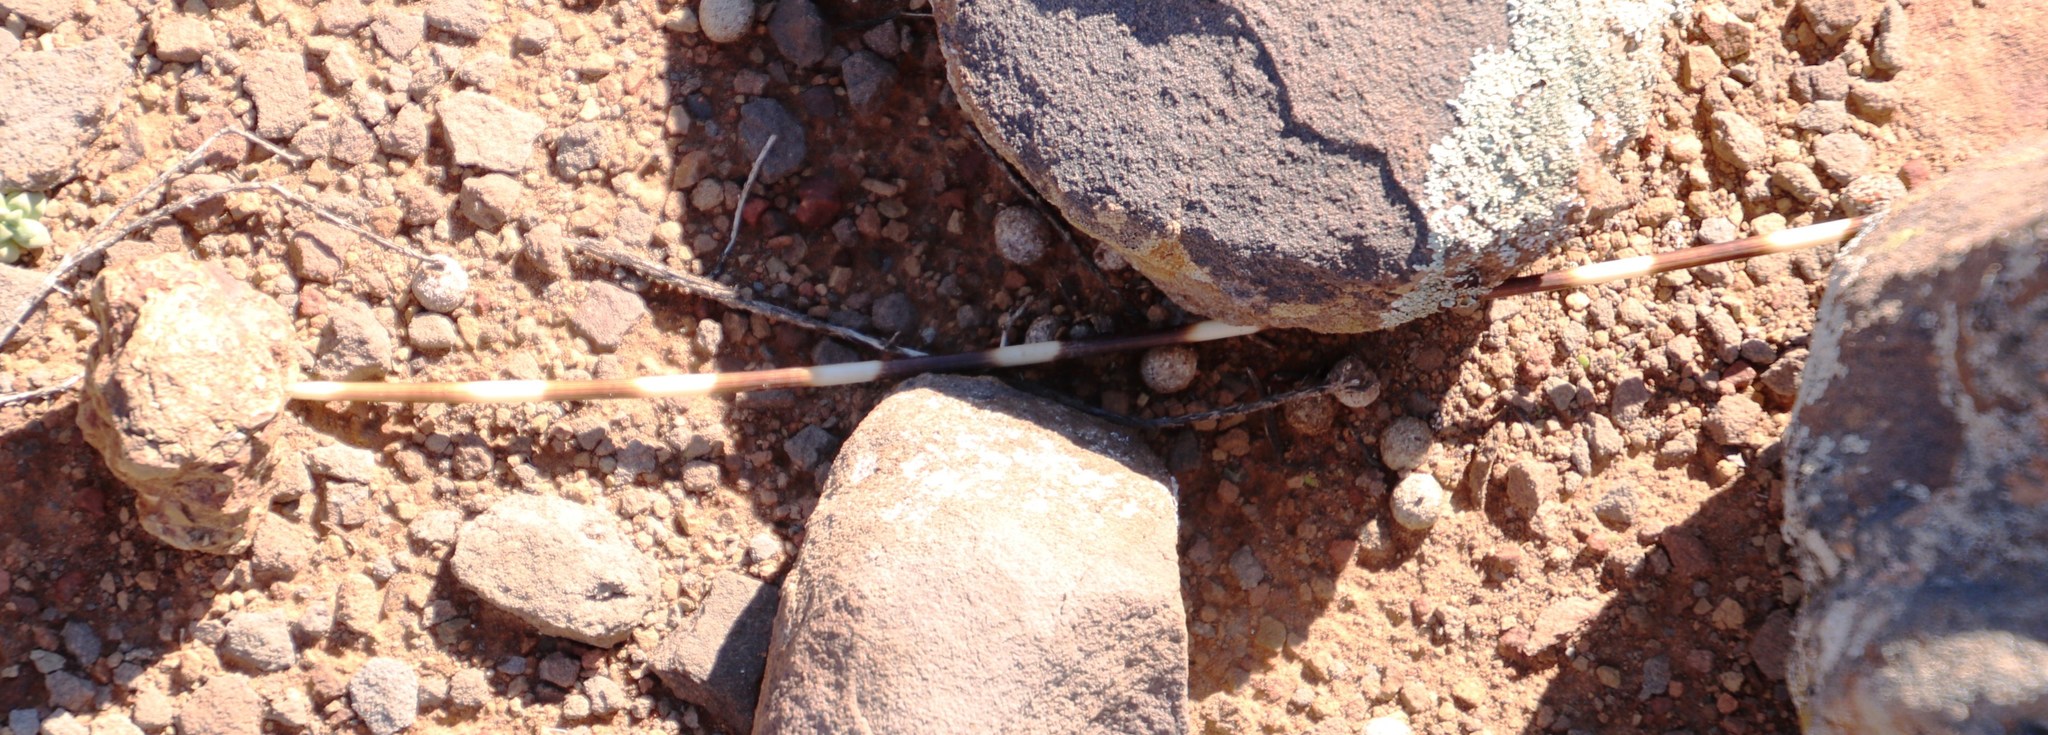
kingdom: Animalia
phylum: Chordata
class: Mammalia
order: Rodentia
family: Hystricidae
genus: Hystrix
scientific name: Hystrix africaeaustralis
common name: Cape porcupine
